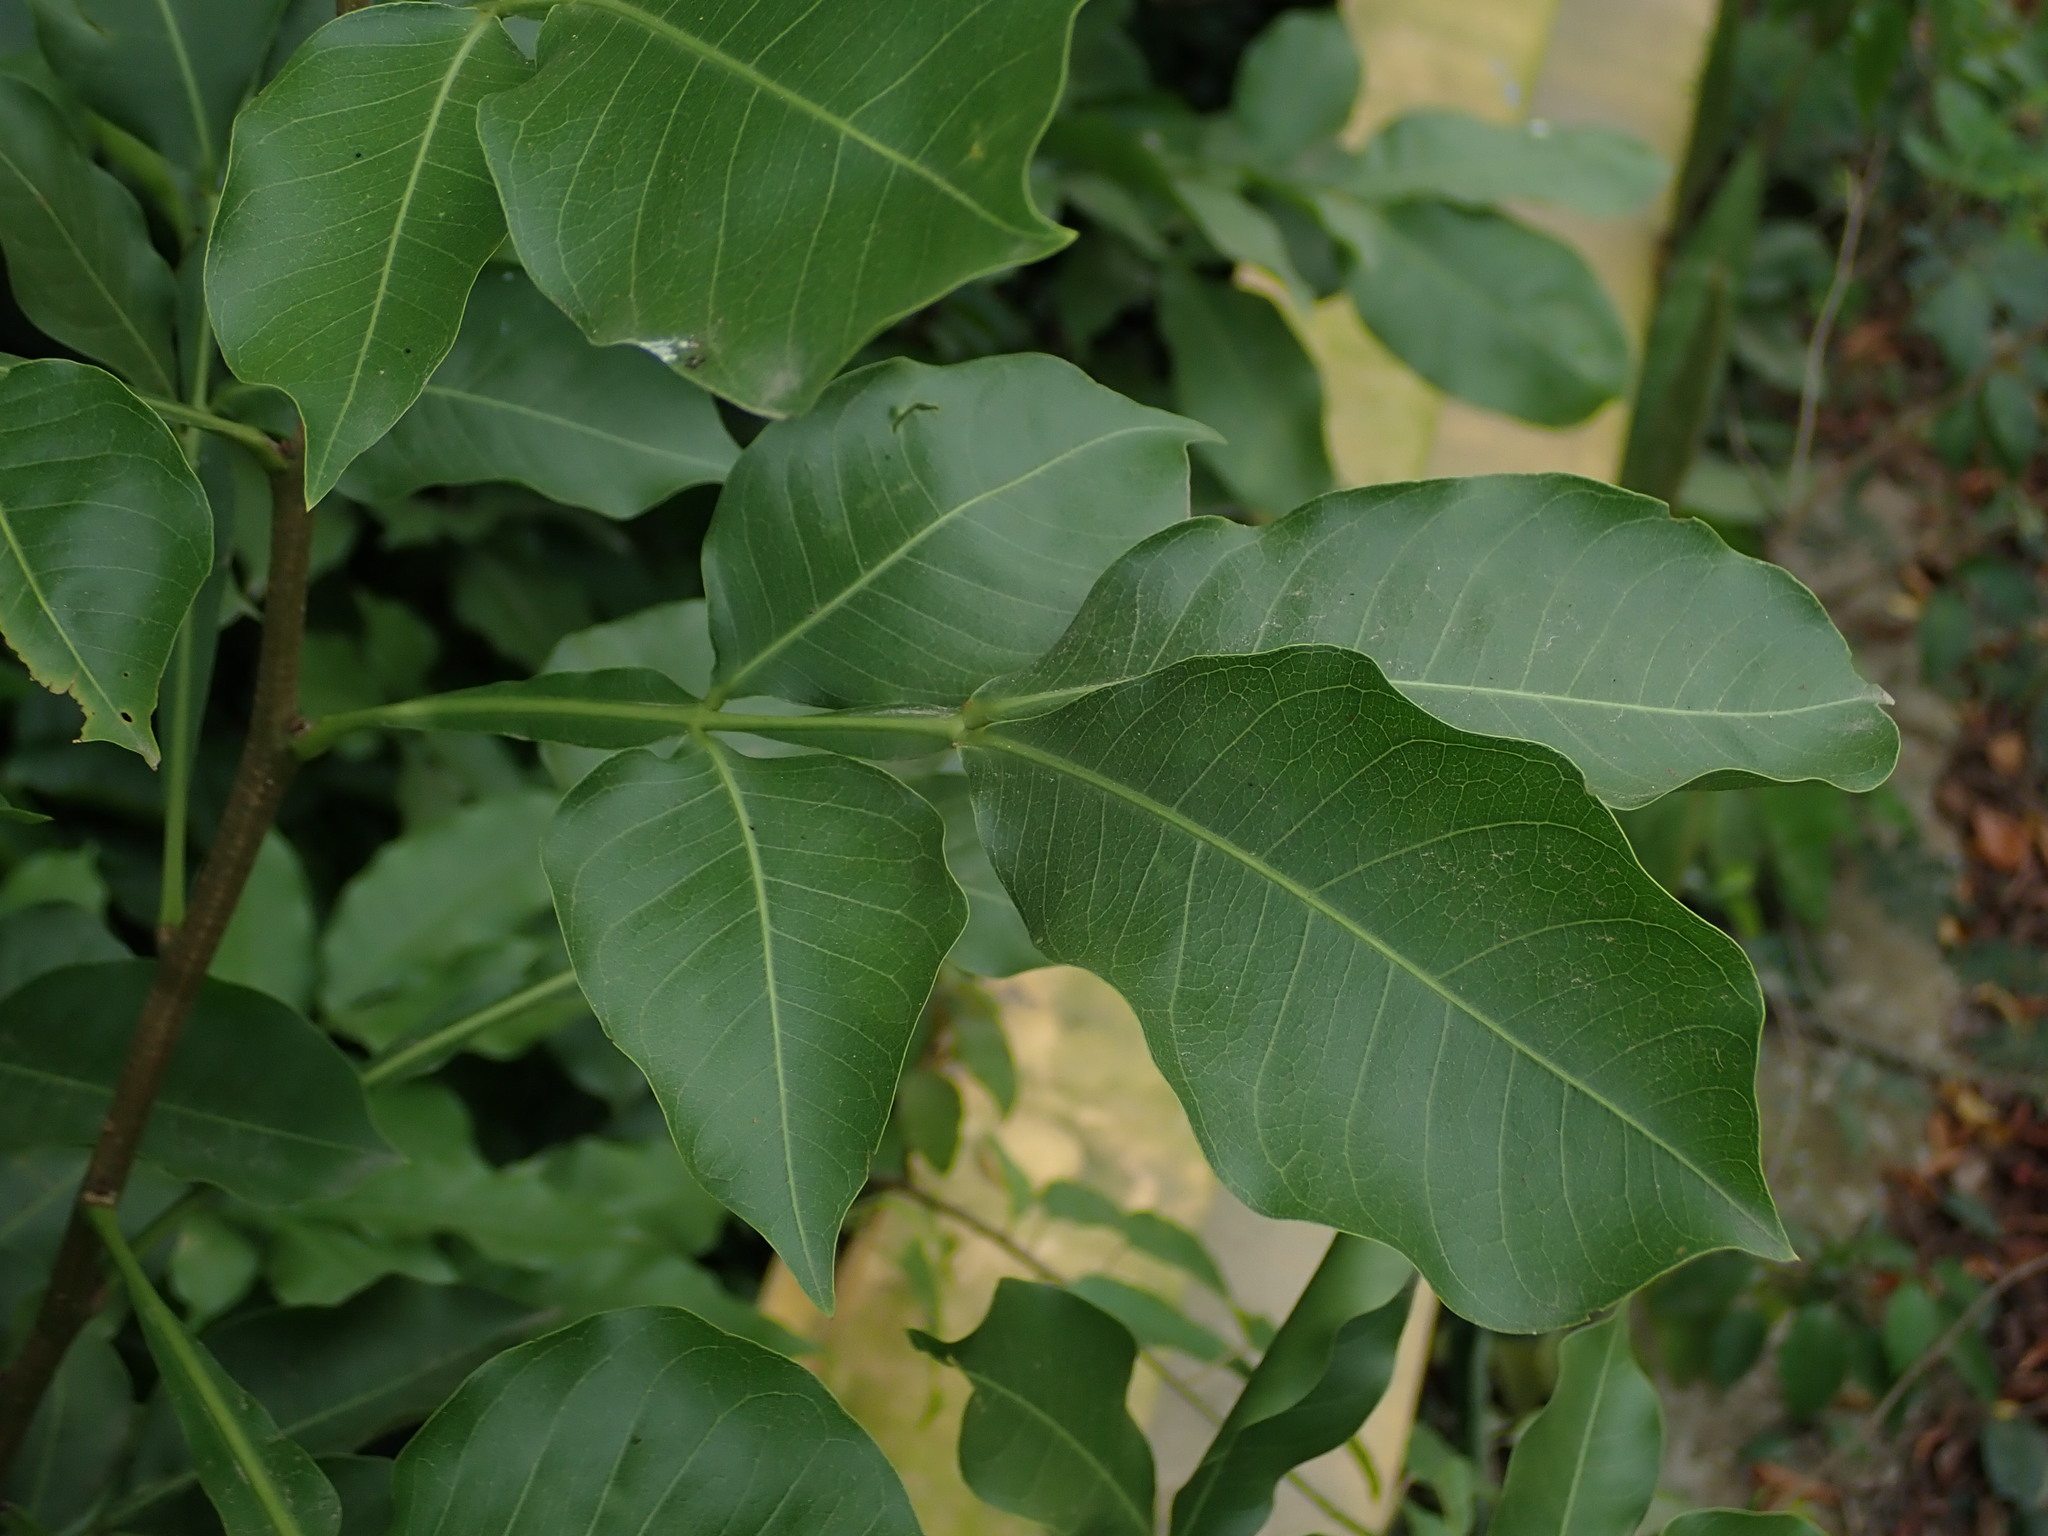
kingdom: Plantae
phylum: Tracheophyta
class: Magnoliopsida
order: Sapindales
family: Sapindaceae
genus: Melicoccus
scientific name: Melicoccus bijugatus
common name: Spanish lime
